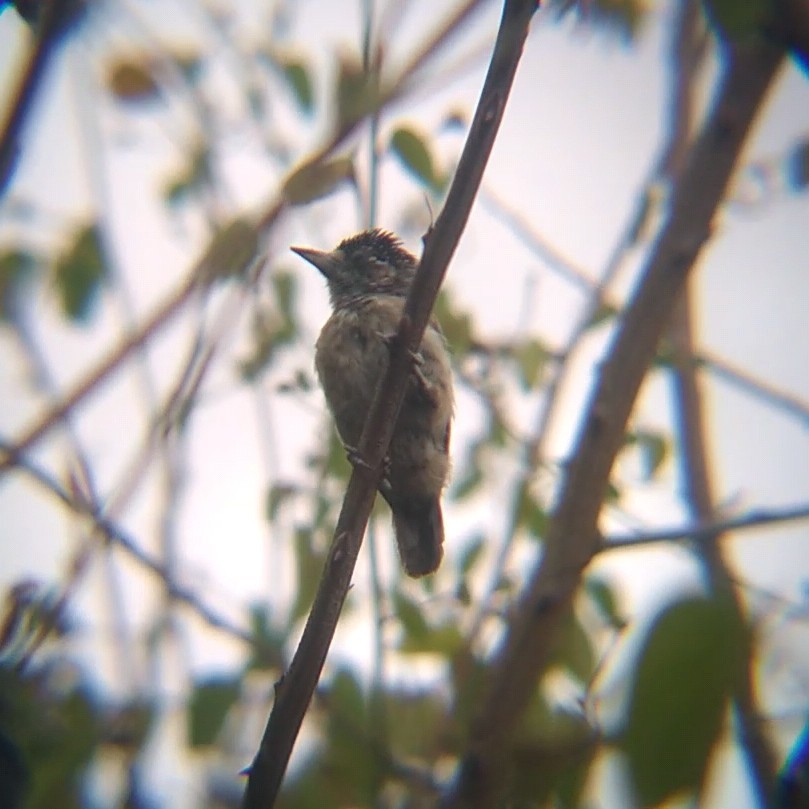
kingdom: Animalia
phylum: Chordata
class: Aves
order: Piciformes
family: Picidae
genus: Picumnus
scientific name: Picumnus limae
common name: Ochraceous piculet
